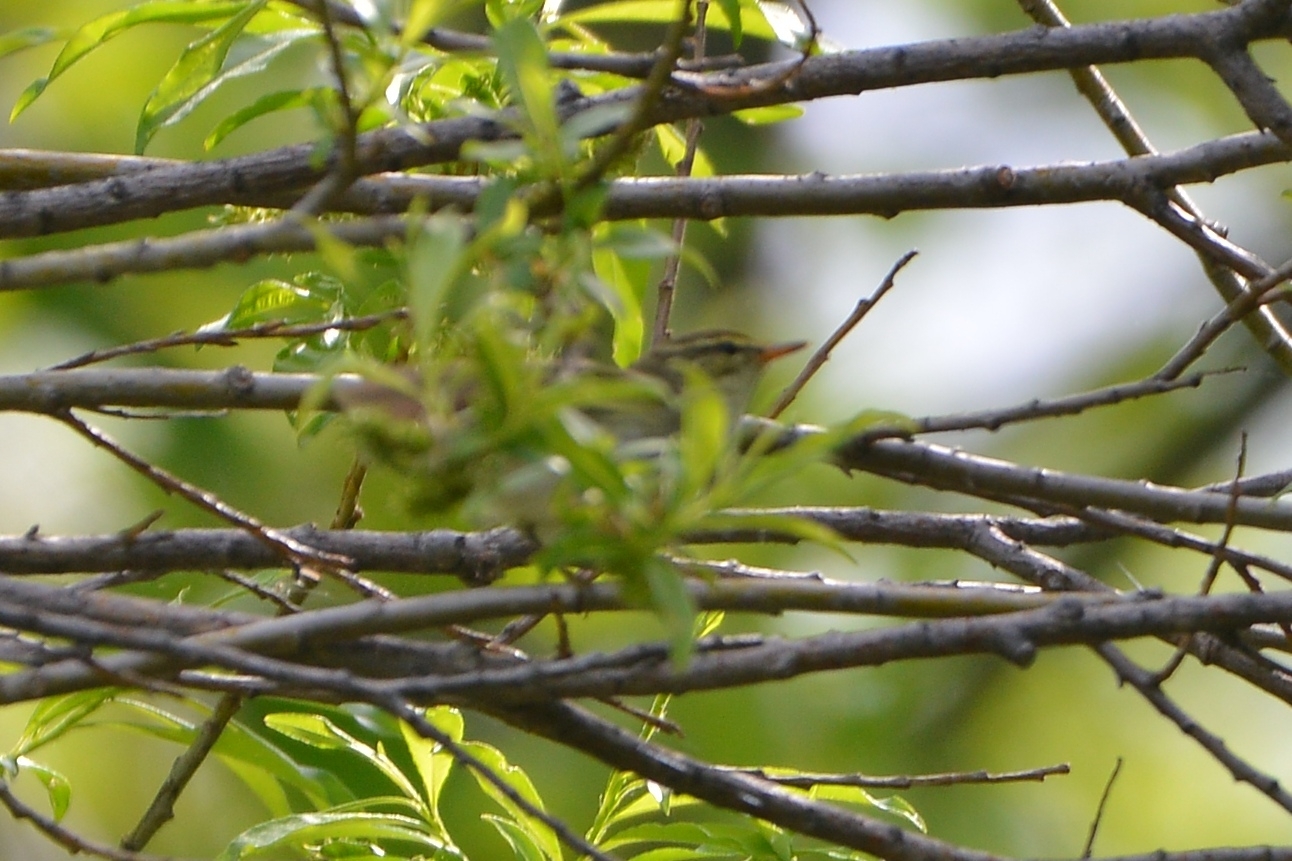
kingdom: Animalia
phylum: Chordata
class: Aves
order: Passeriformes
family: Phylloscopidae
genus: Phylloscopus
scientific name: Phylloscopus examinandus
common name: Kamchatka leaf warbler
